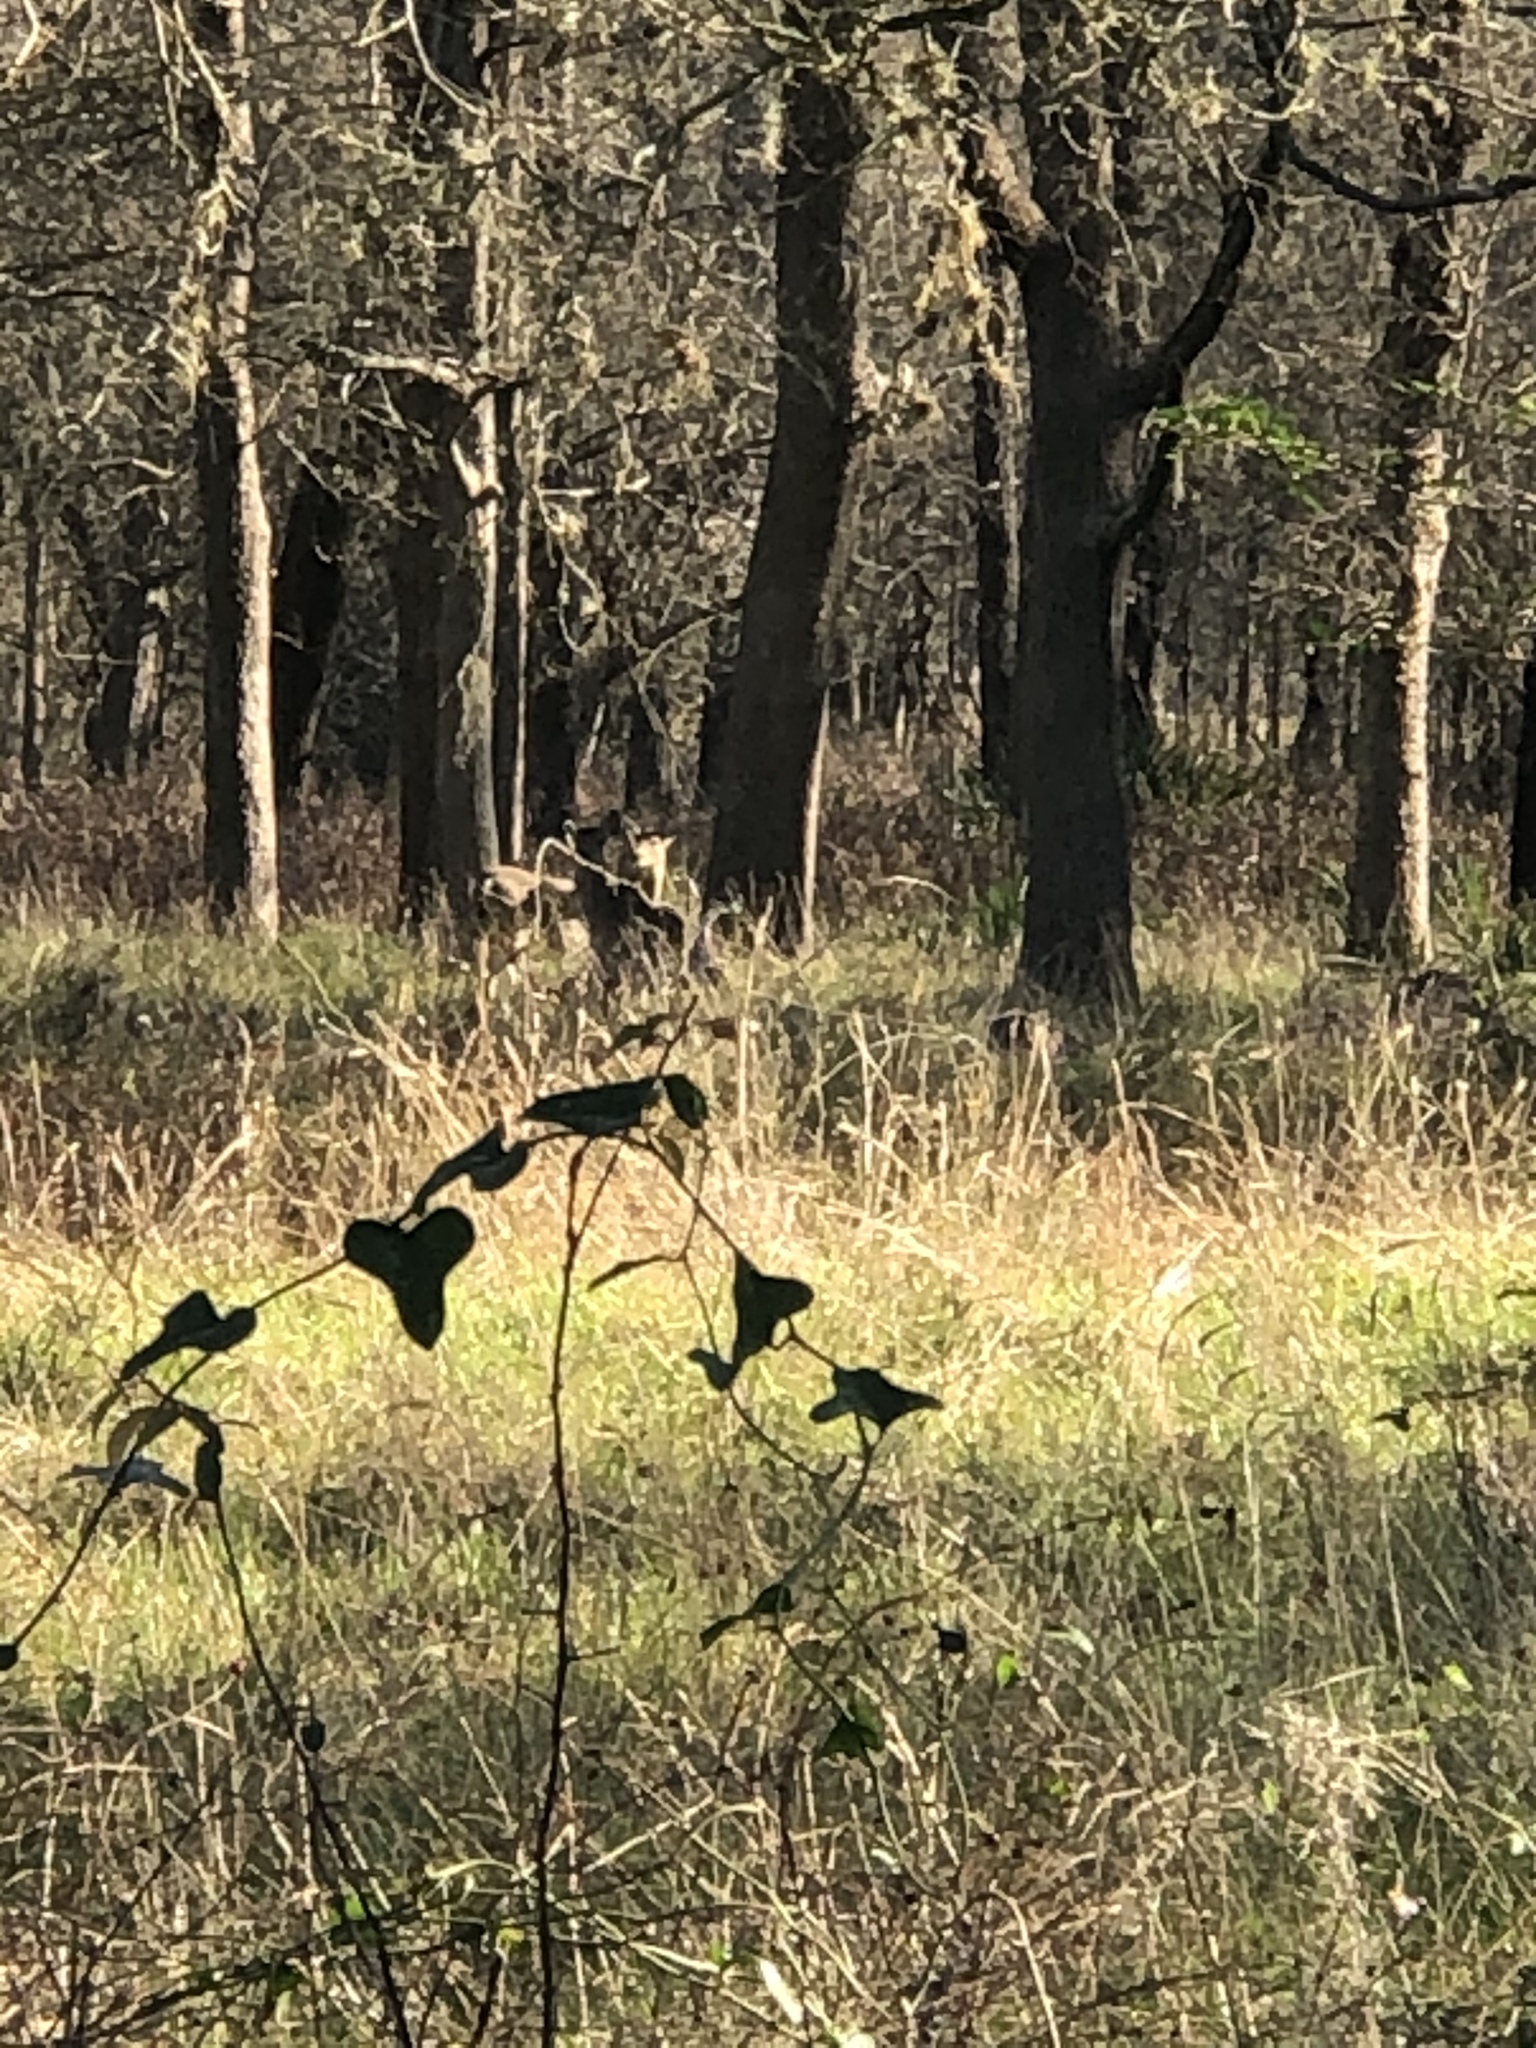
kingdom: Animalia
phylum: Chordata
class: Mammalia
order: Artiodactyla
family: Cervidae
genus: Odocoileus
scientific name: Odocoileus virginianus
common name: White-tailed deer
